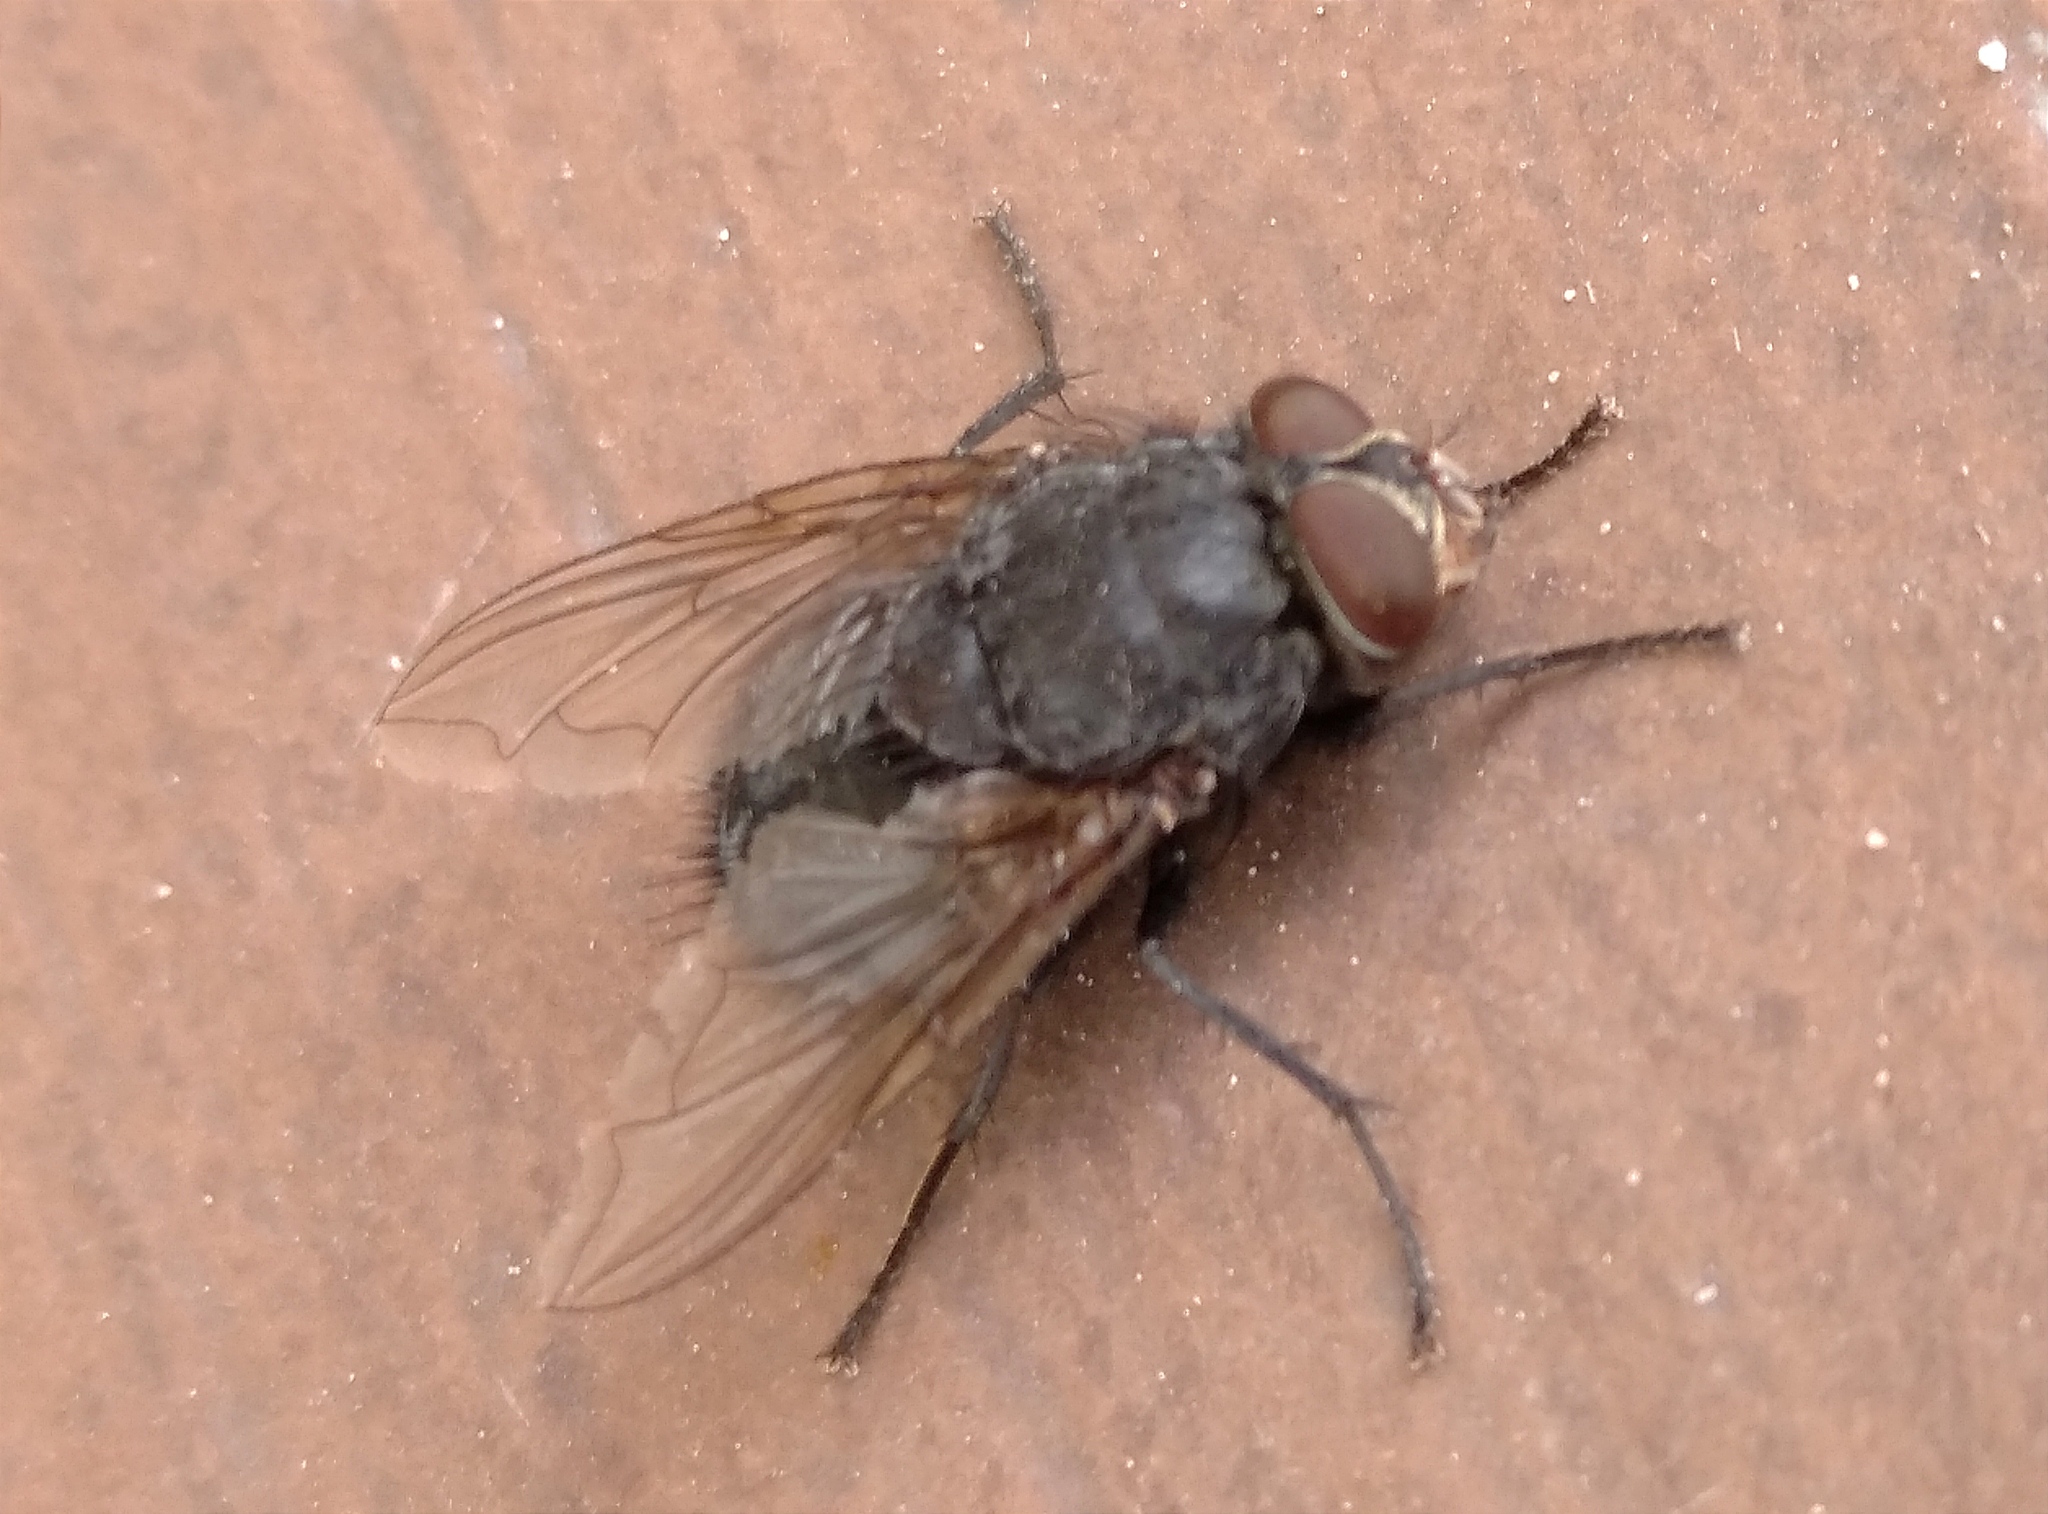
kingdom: Animalia
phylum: Arthropoda
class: Insecta
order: Diptera
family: Calliphoridae
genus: Calliphora
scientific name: Calliphora vicina
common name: Common blow flie
